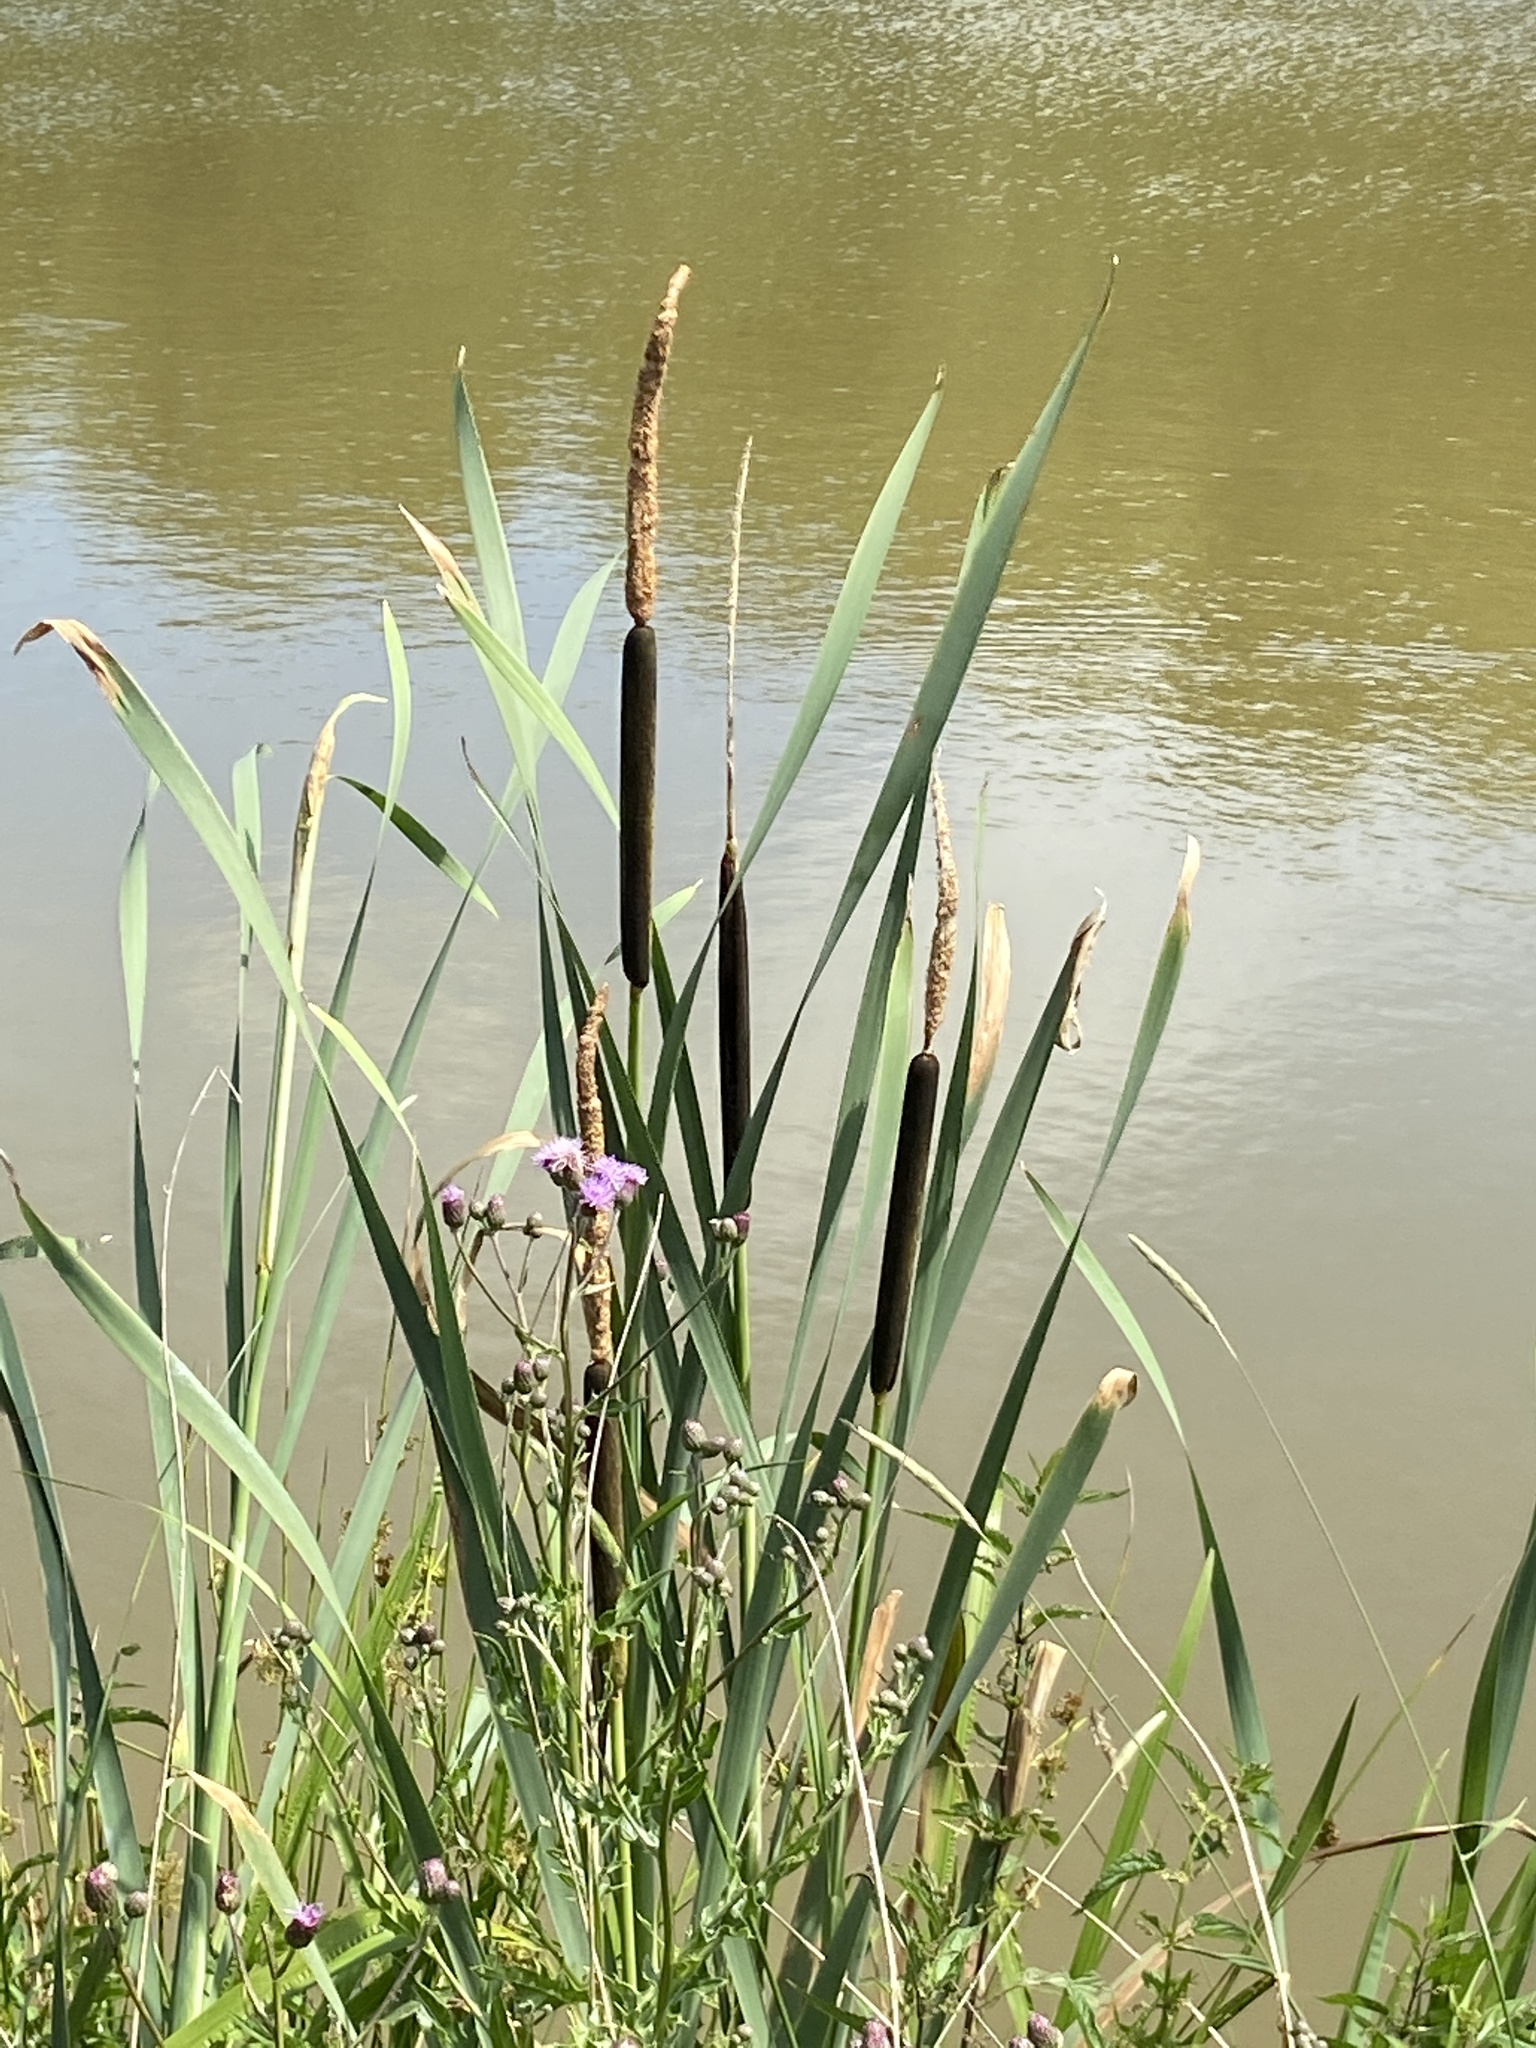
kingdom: Plantae
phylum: Tracheophyta
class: Liliopsida
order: Poales
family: Typhaceae
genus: Typha
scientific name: Typha latifolia
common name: Broadleaf cattail
